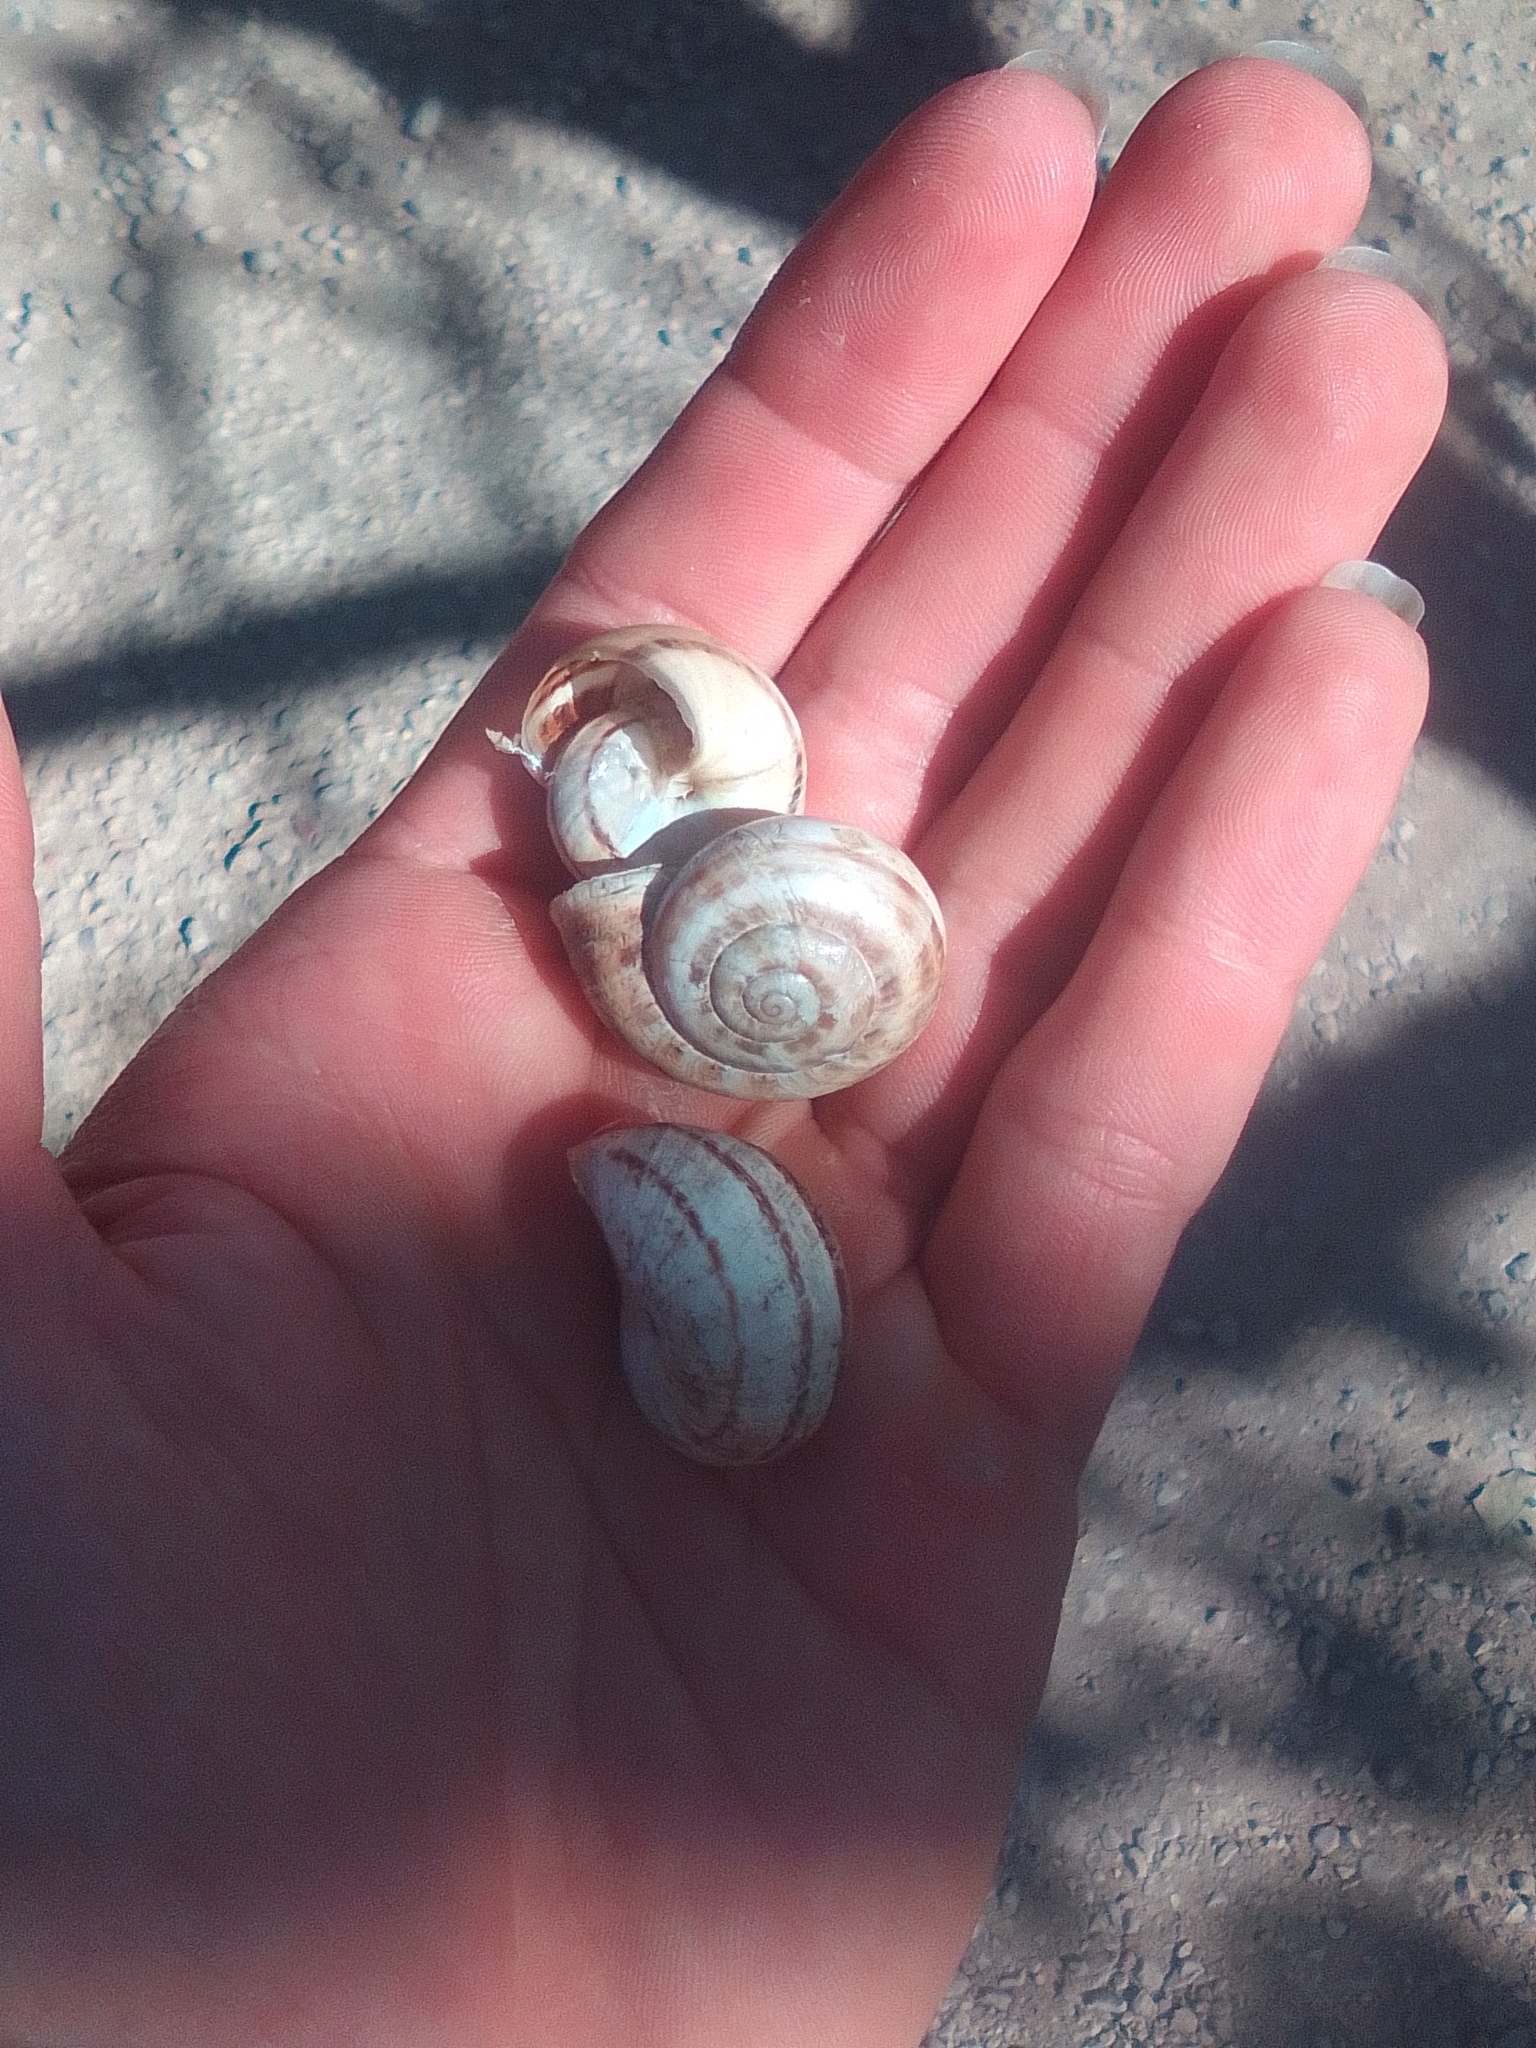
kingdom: Animalia
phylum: Mollusca
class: Gastropoda
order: Stylommatophora
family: Helicidae
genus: Eobania
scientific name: Eobania vermiculata
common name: Chocolateband snail
